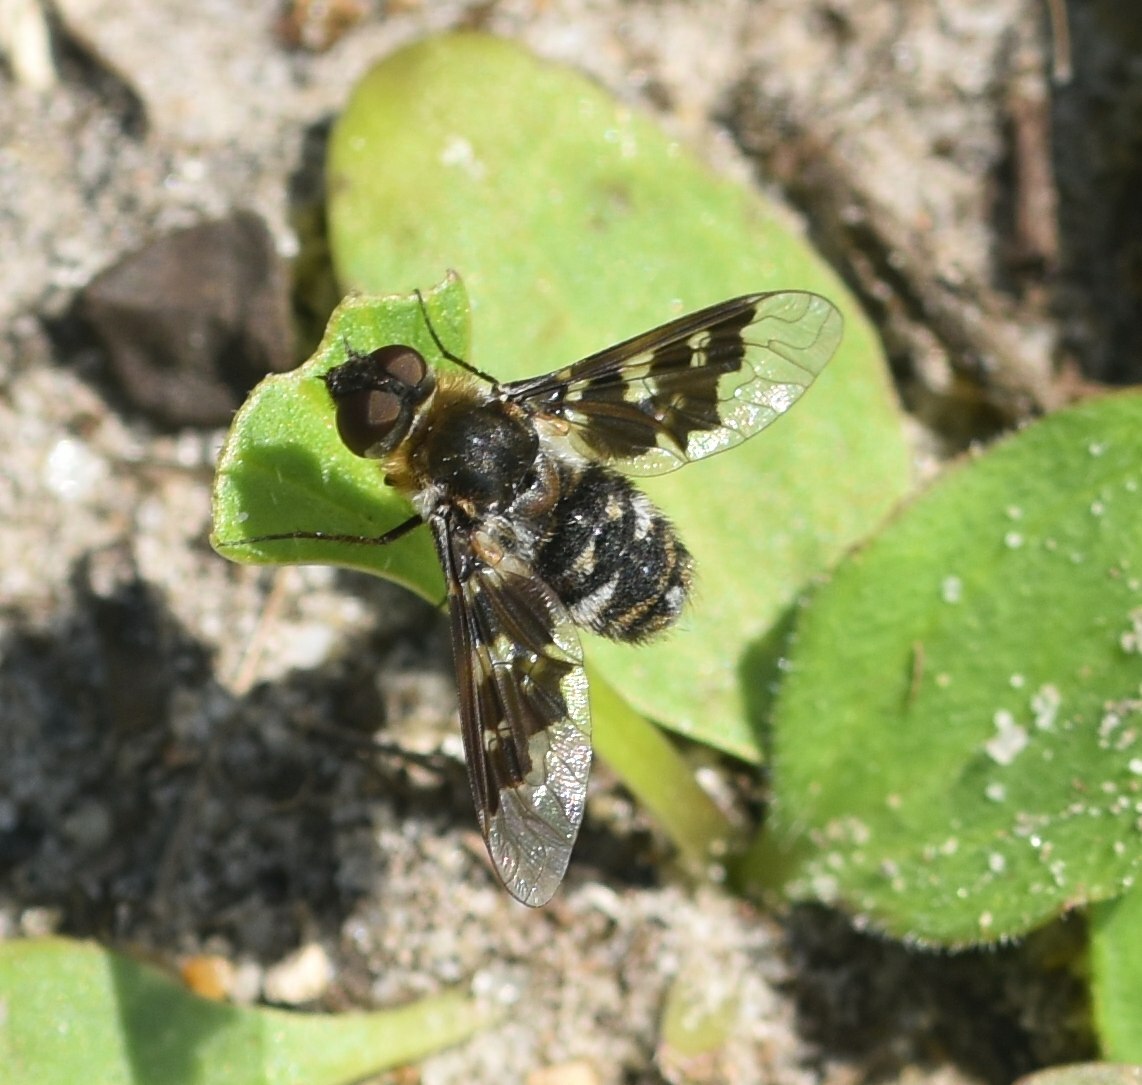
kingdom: Animalia
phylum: Arthropoda
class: Insecta
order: Diptera
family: Bombyliidae
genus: Thyridanthrax
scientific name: Thyridanthrax fenestratus
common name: Mottled bee-fly
